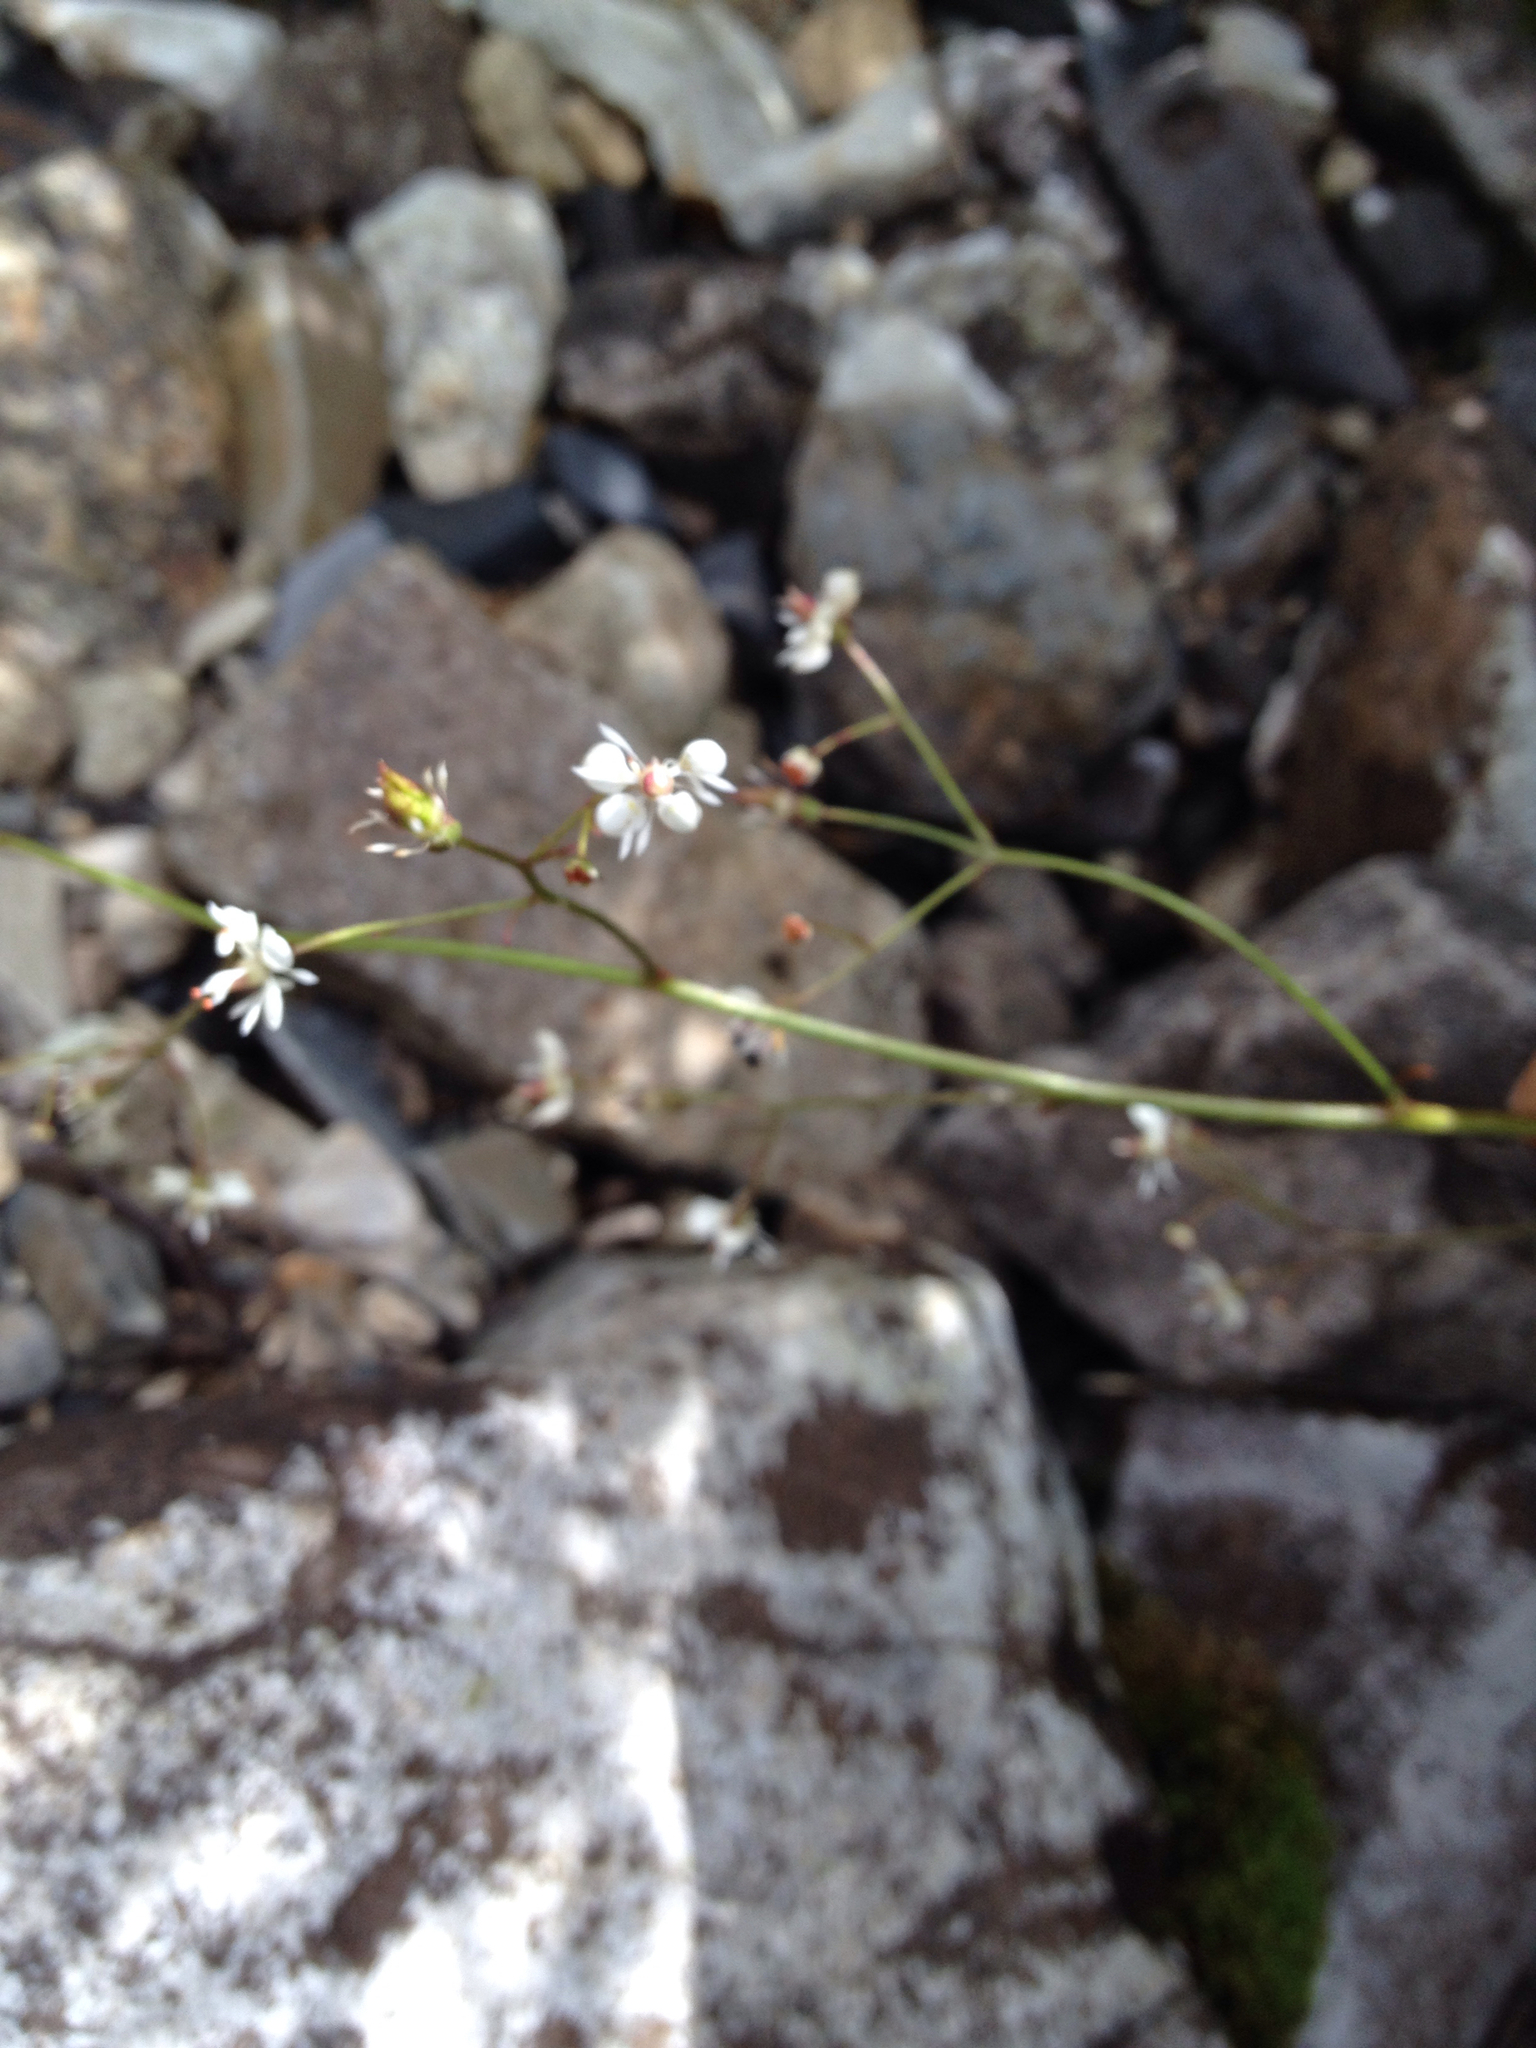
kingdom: Plantae
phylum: Tracheophyta
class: Magnoliopsida
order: Saxifragales
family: Saxifragaceae
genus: Micranthes
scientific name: Micranthes odontoloma
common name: Brook saxifrage
